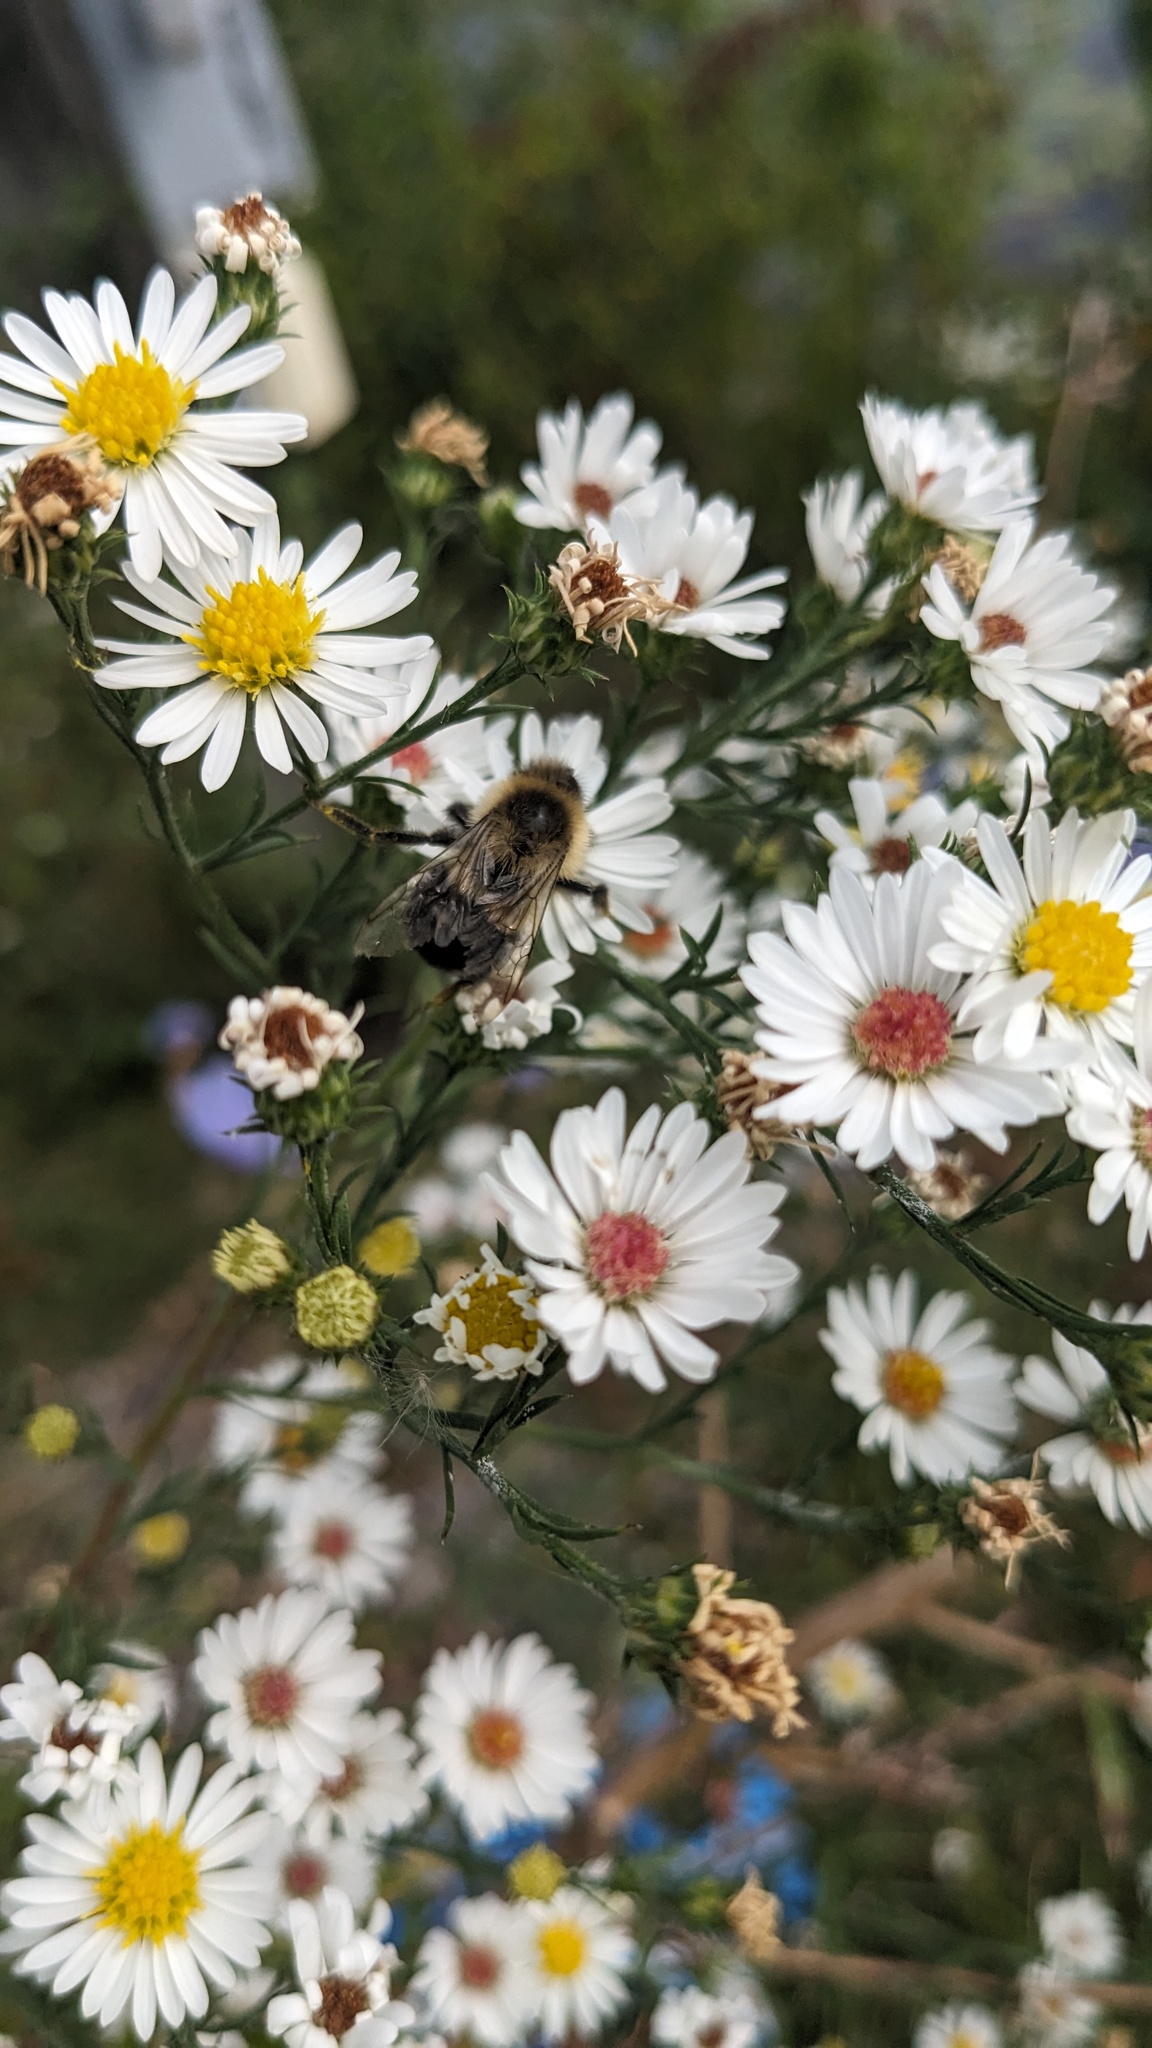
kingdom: Animalia
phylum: Arthropoda
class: Insecta
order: Hymenoptera
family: Apidae
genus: Bombus
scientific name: Bombus impatiens
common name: Common eastern bumble bee
